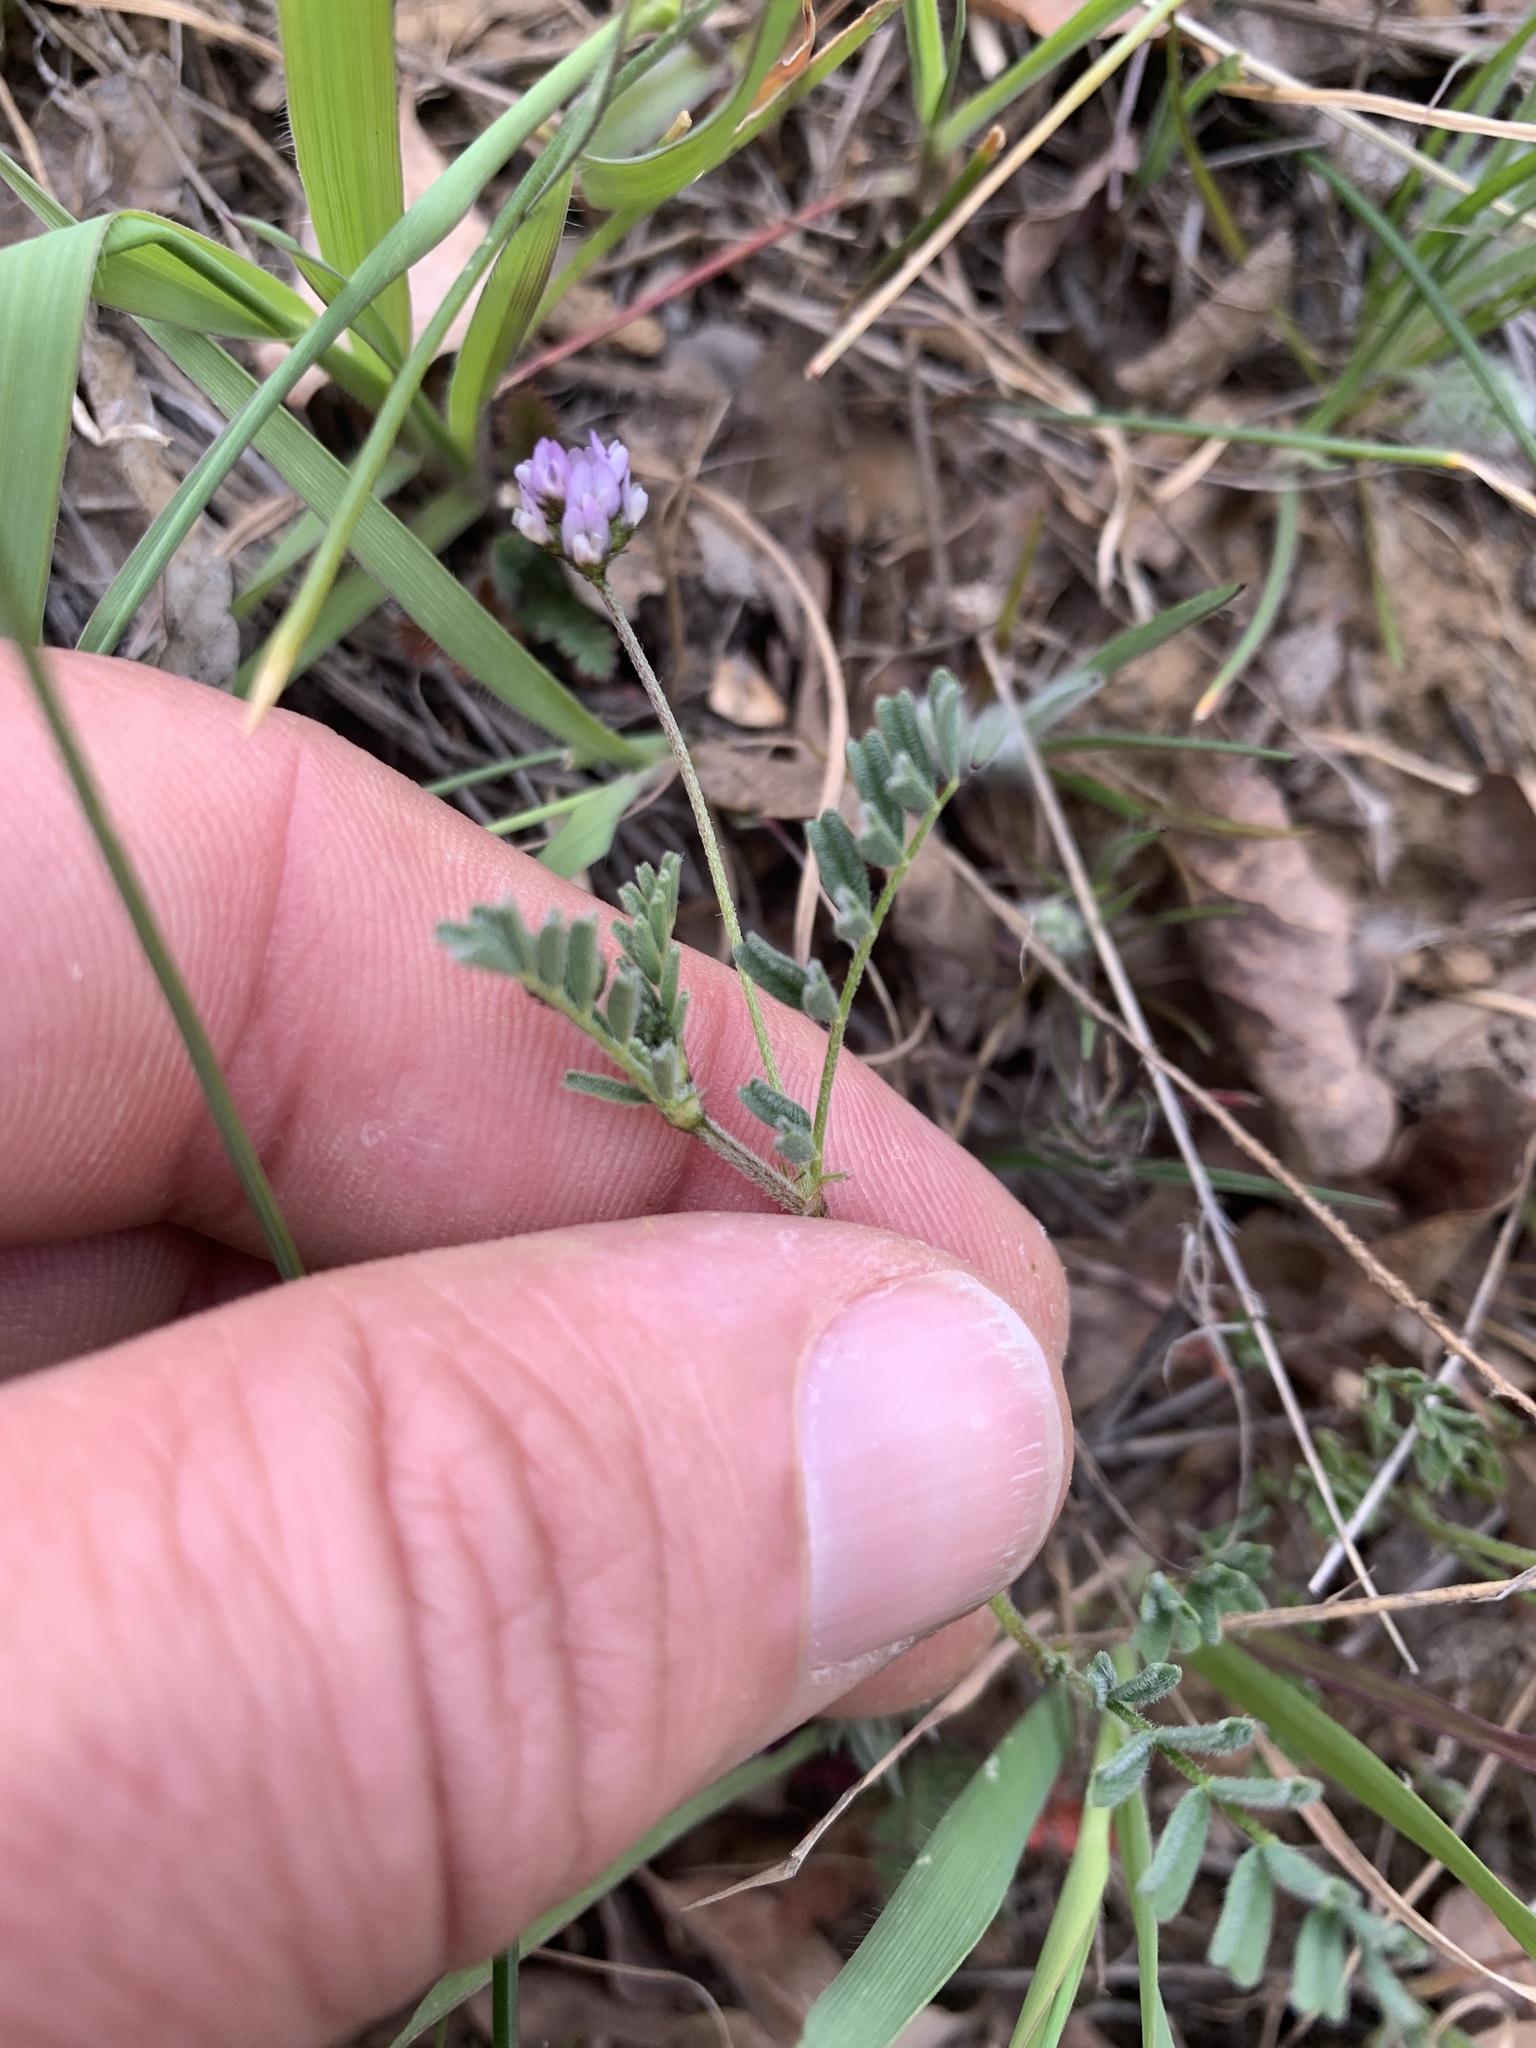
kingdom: Plantae
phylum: Tracheophyta
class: Magnoliopsida
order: Fabales
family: Fabaceae
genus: Astragalus
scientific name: Astragalus gambelianus
